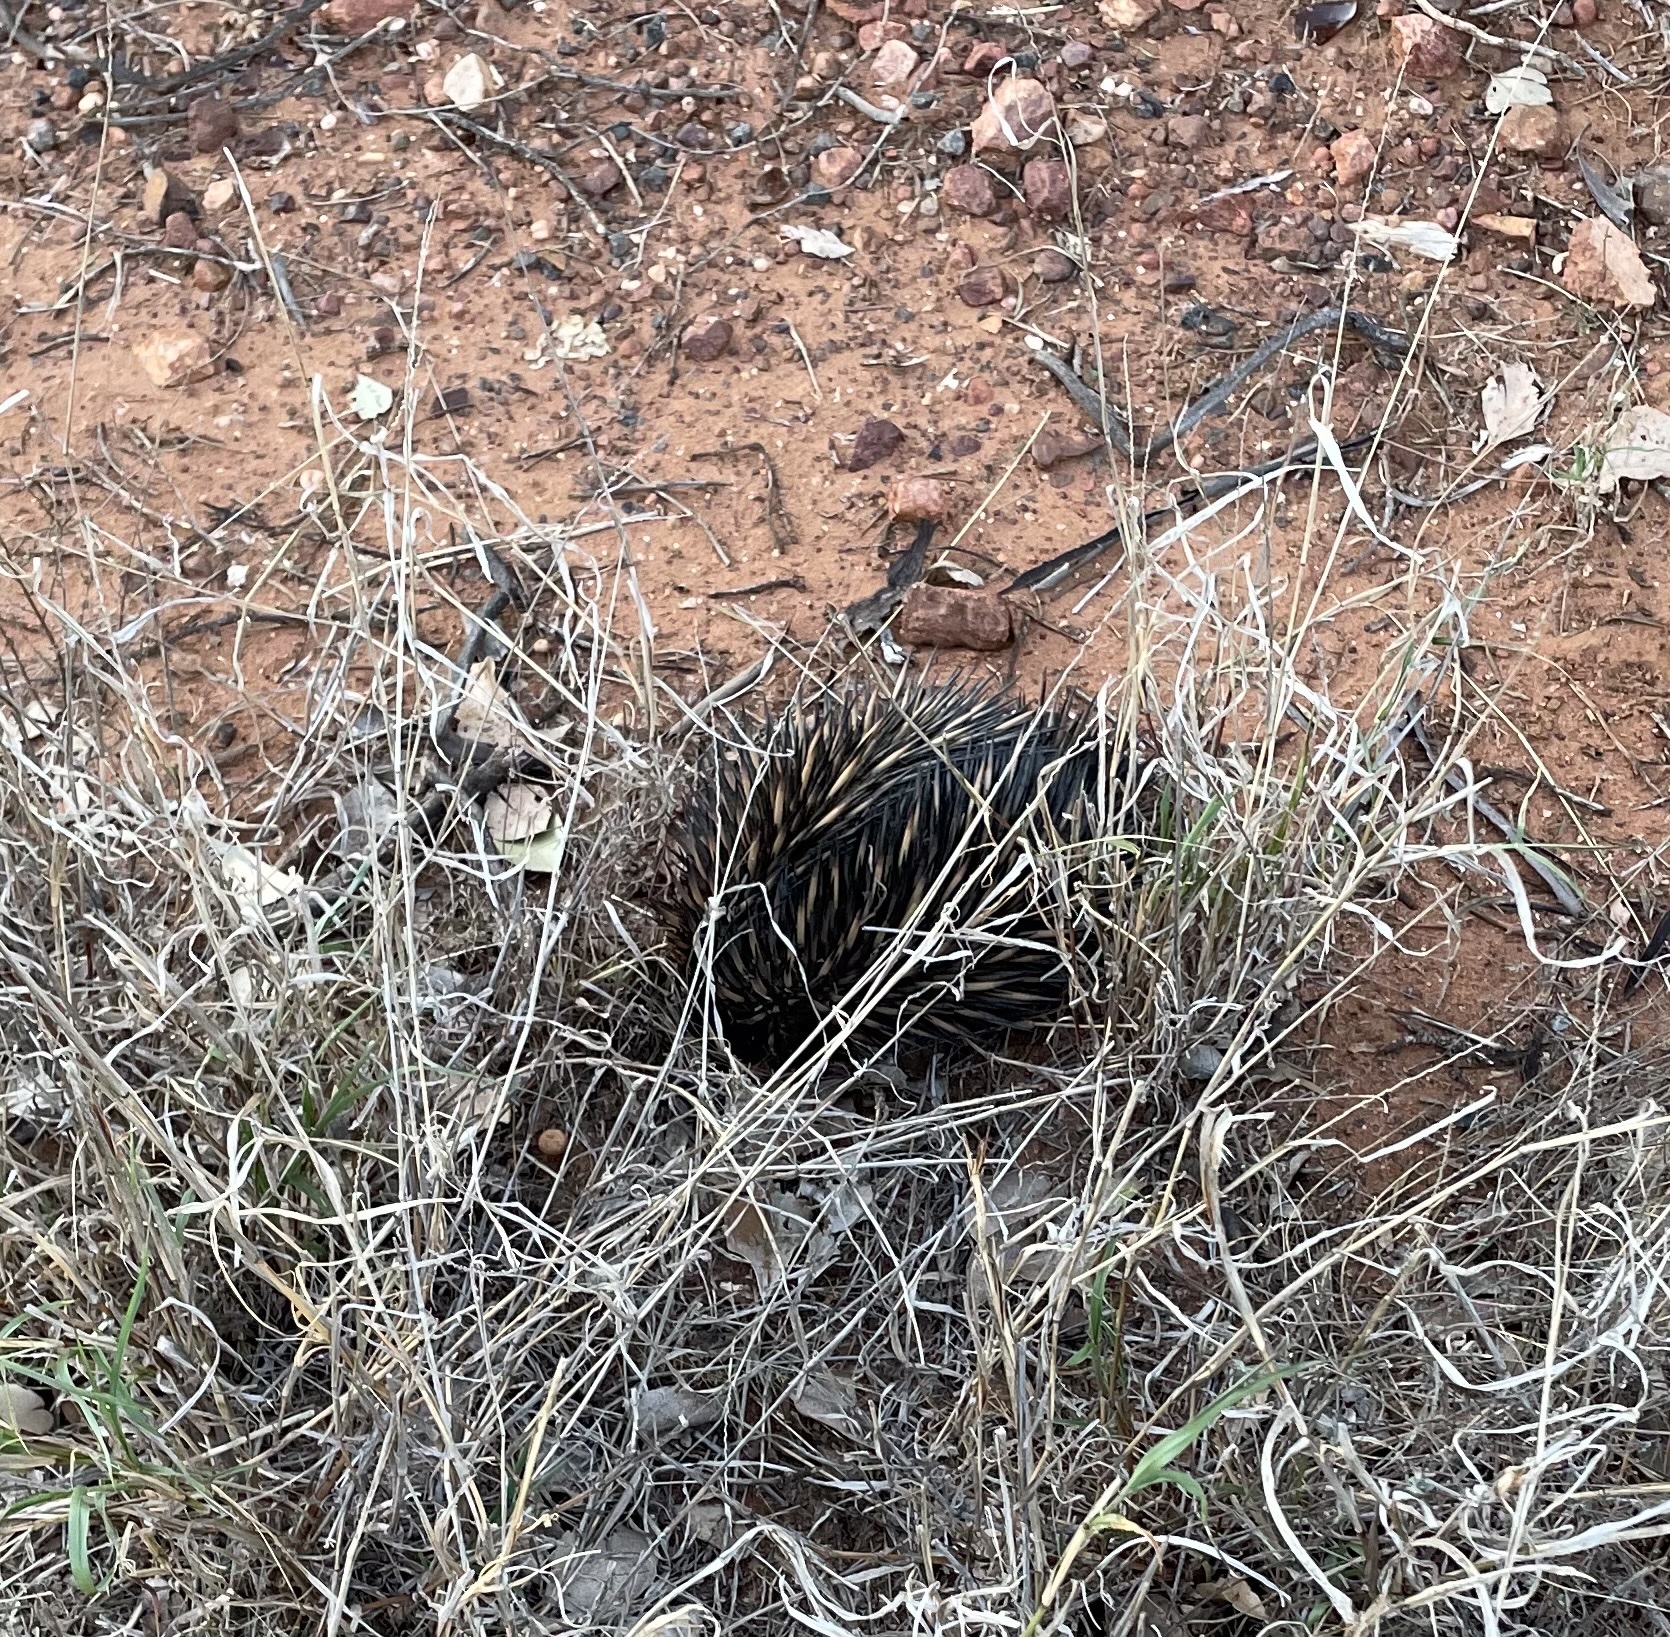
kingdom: Animalia
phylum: Chordata
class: Mammalia
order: Monotremata
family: Tachyglossidae
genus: Tachyglossus
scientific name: Tachyglossus aculeatus
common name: Short-beaked echidna
